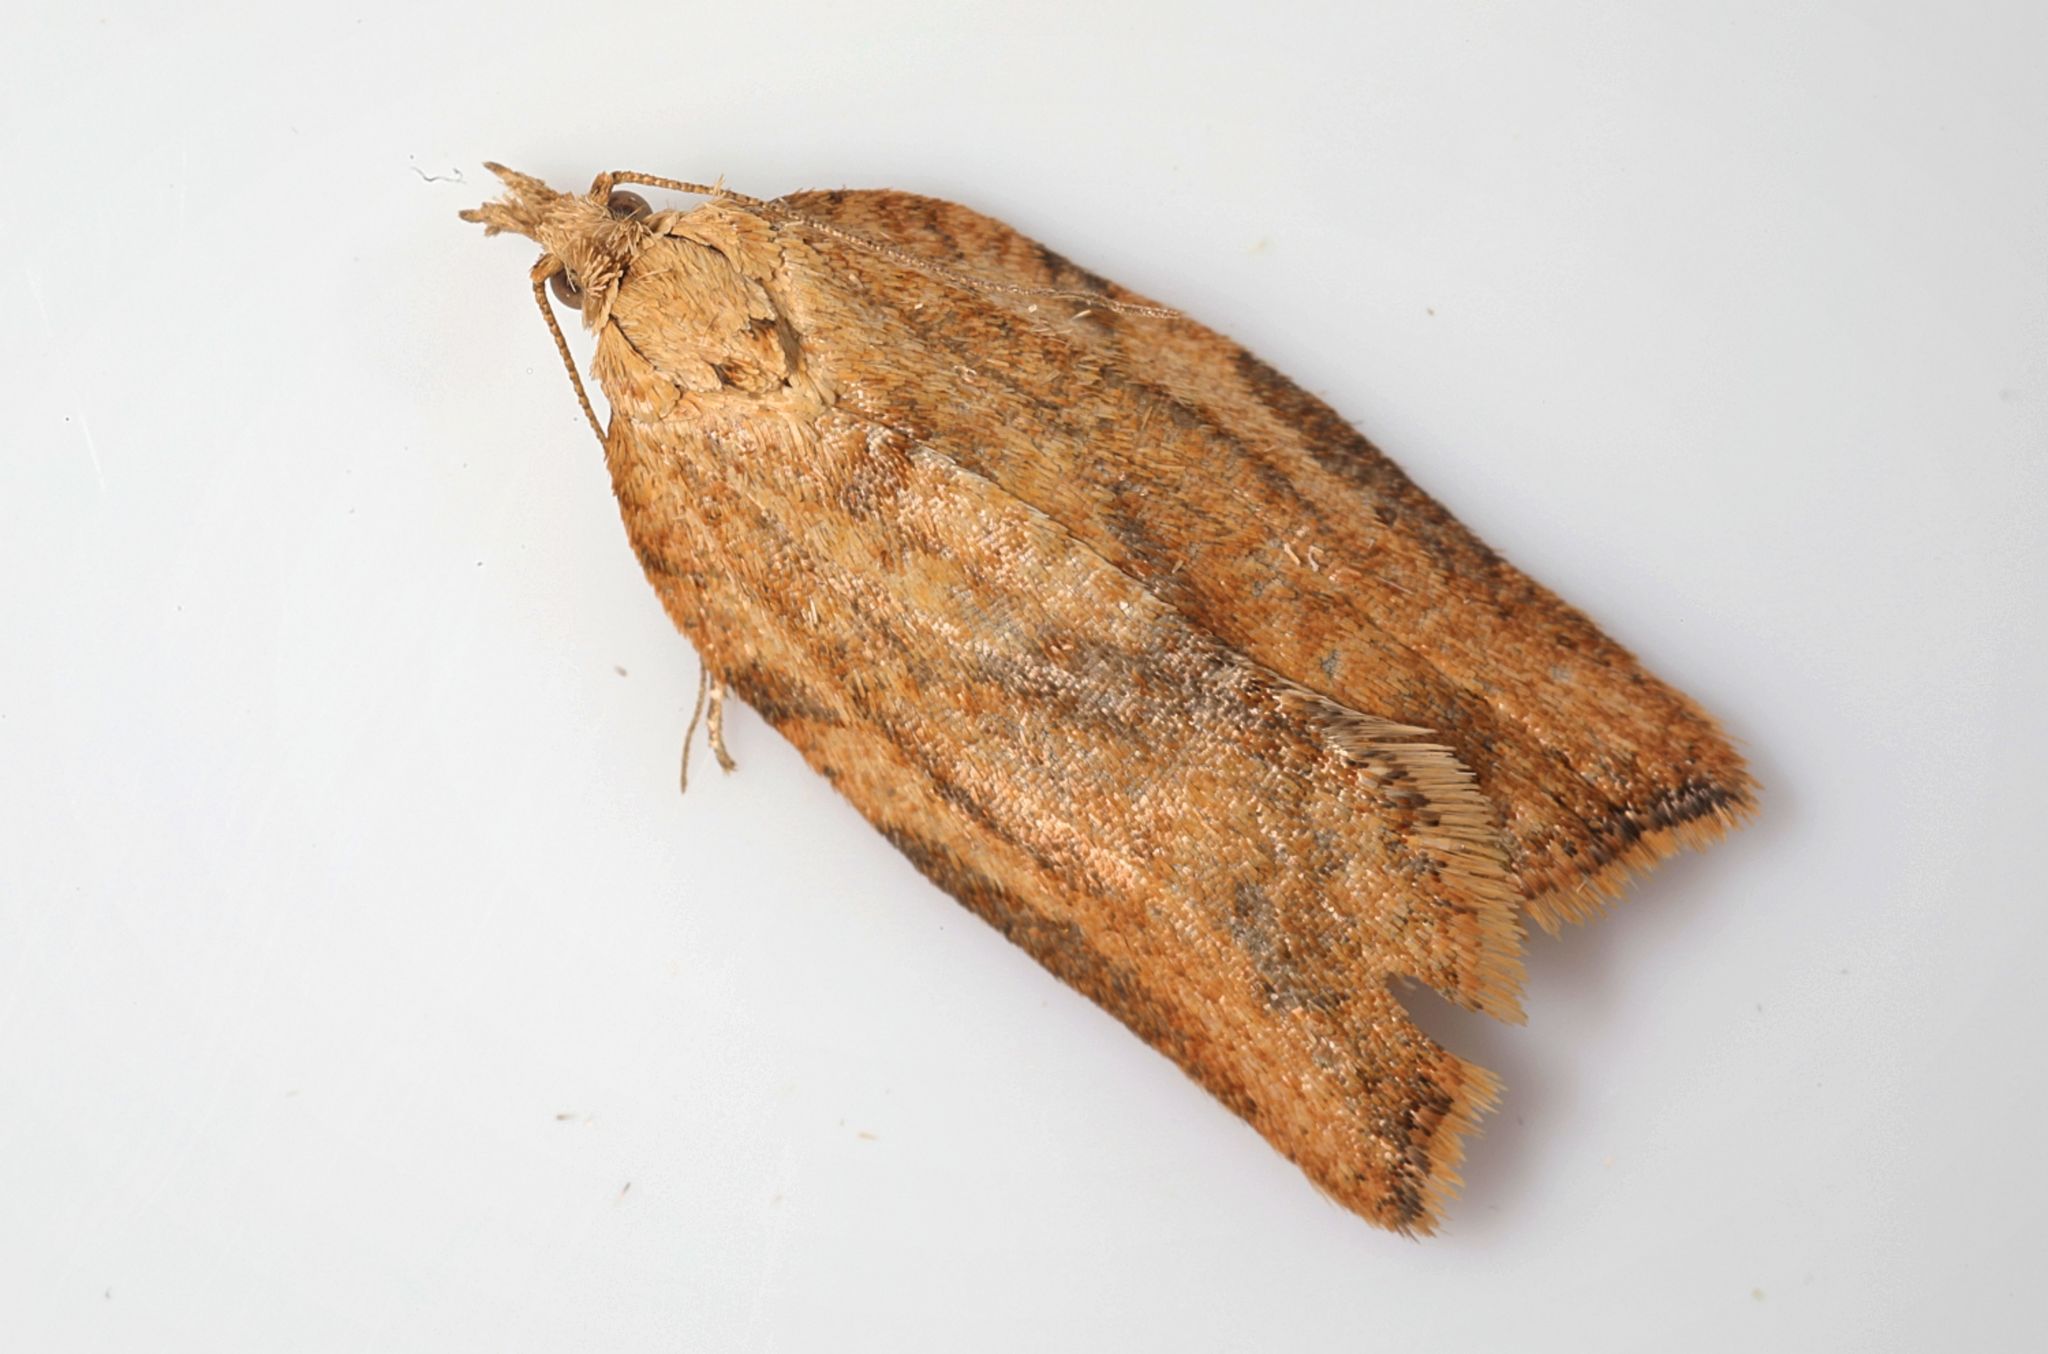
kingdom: Animalia
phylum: Arthropoda
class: Insecta
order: Lepidoptera
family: Tortricidae
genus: Epiphyas
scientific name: Epiphyas postvittana
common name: Light brown apple moth
